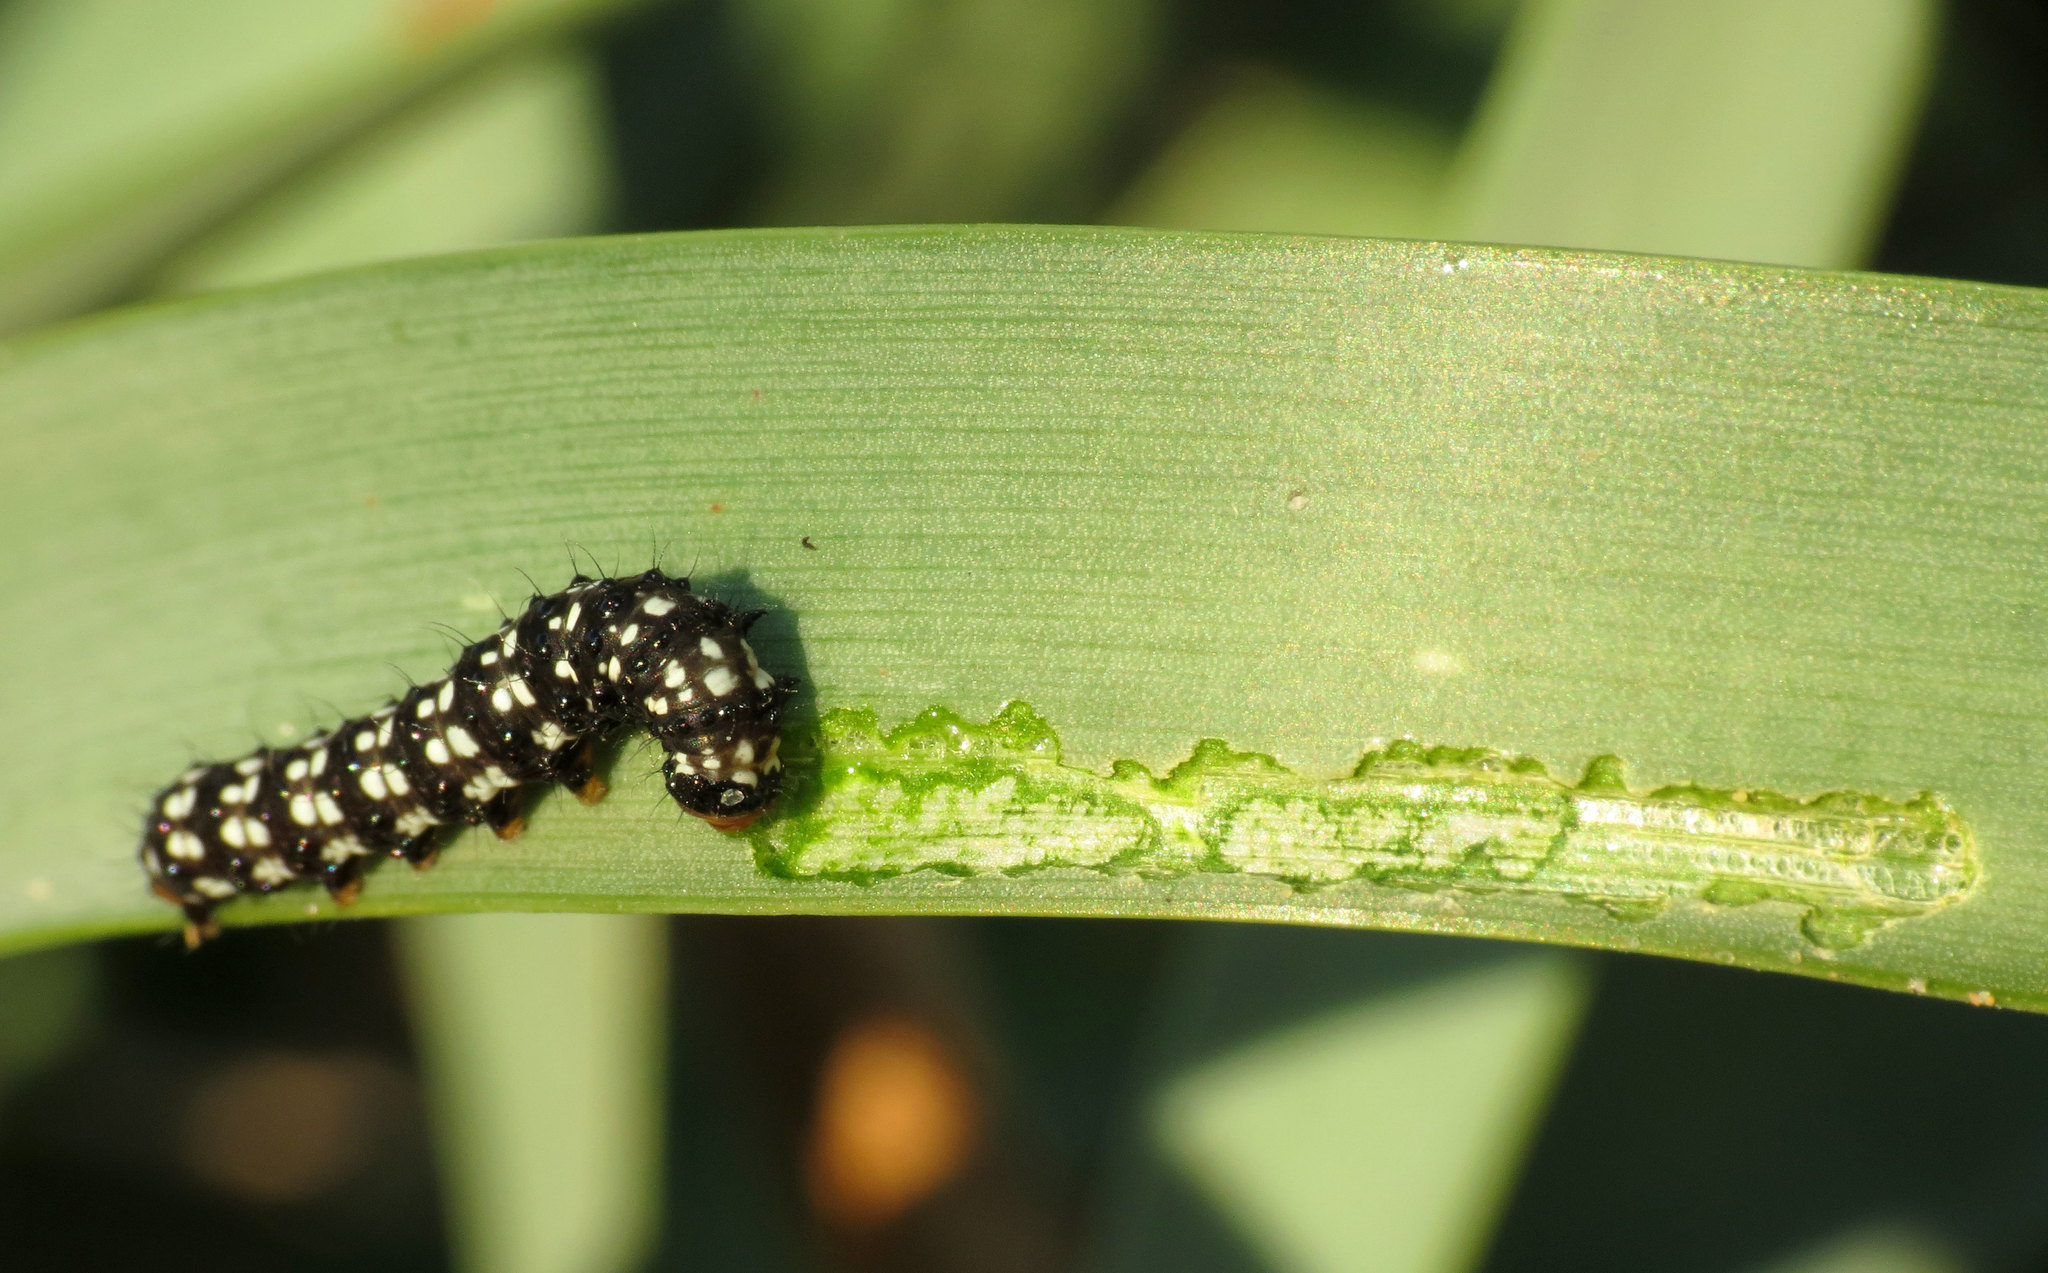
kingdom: Animalia
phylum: Arthropoda
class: Insecta
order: Lepidoptera
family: Noctuidae
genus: Brithys
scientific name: Brithys crini
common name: Kew arches
